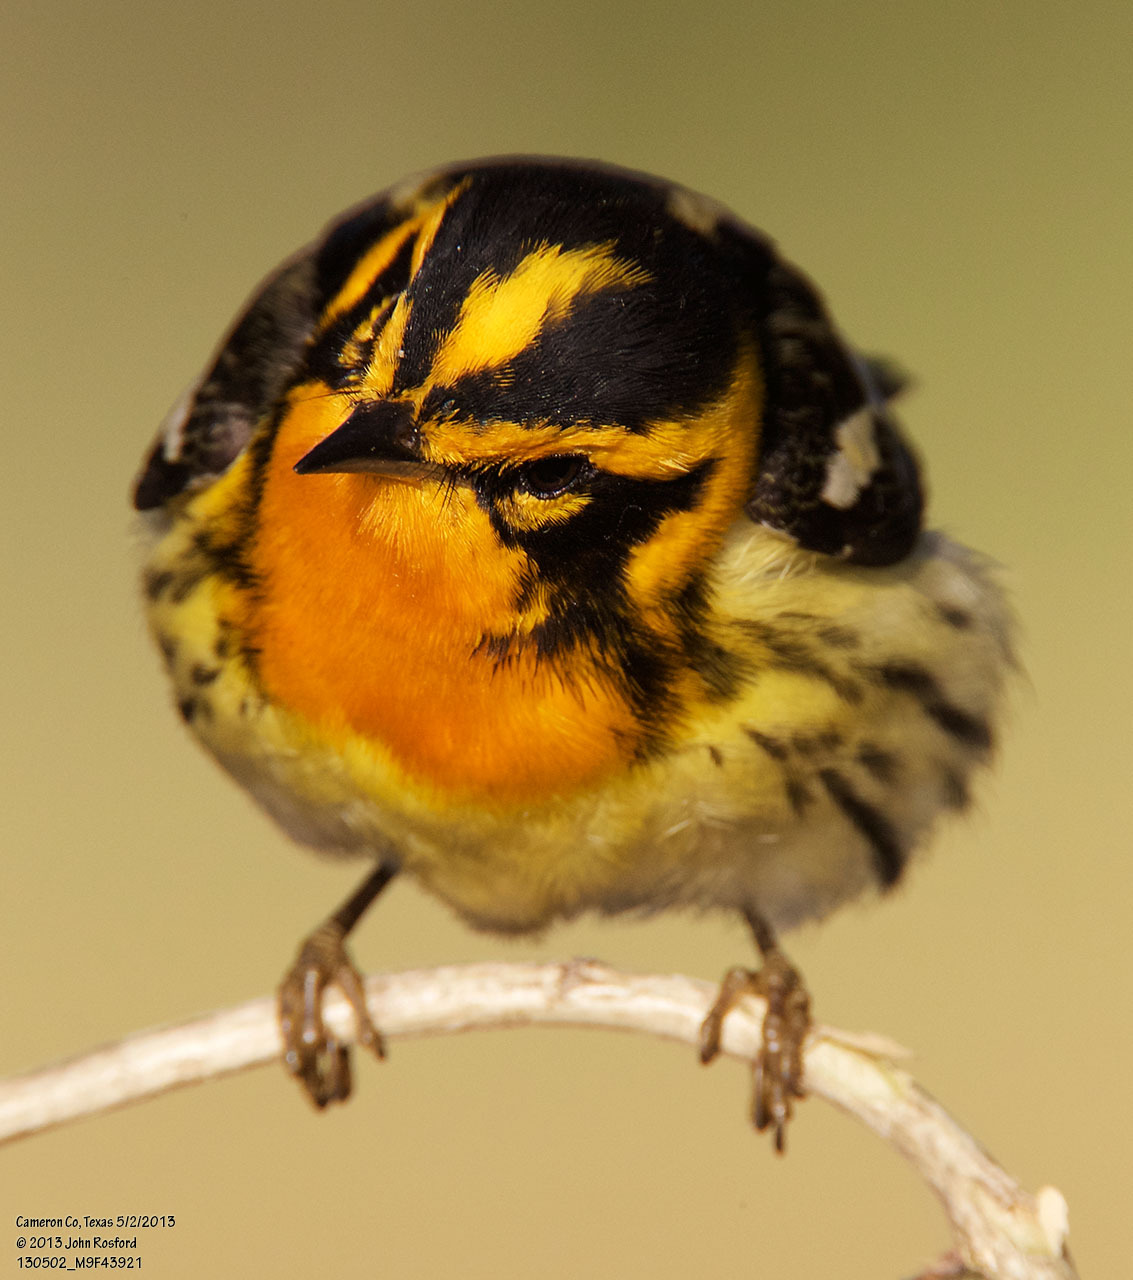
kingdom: Animalia
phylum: Chordata
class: Aves
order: Passeriformes
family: Parulidae
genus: Setophaga
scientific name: Setophaga fusca
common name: Blackburnian warbler
